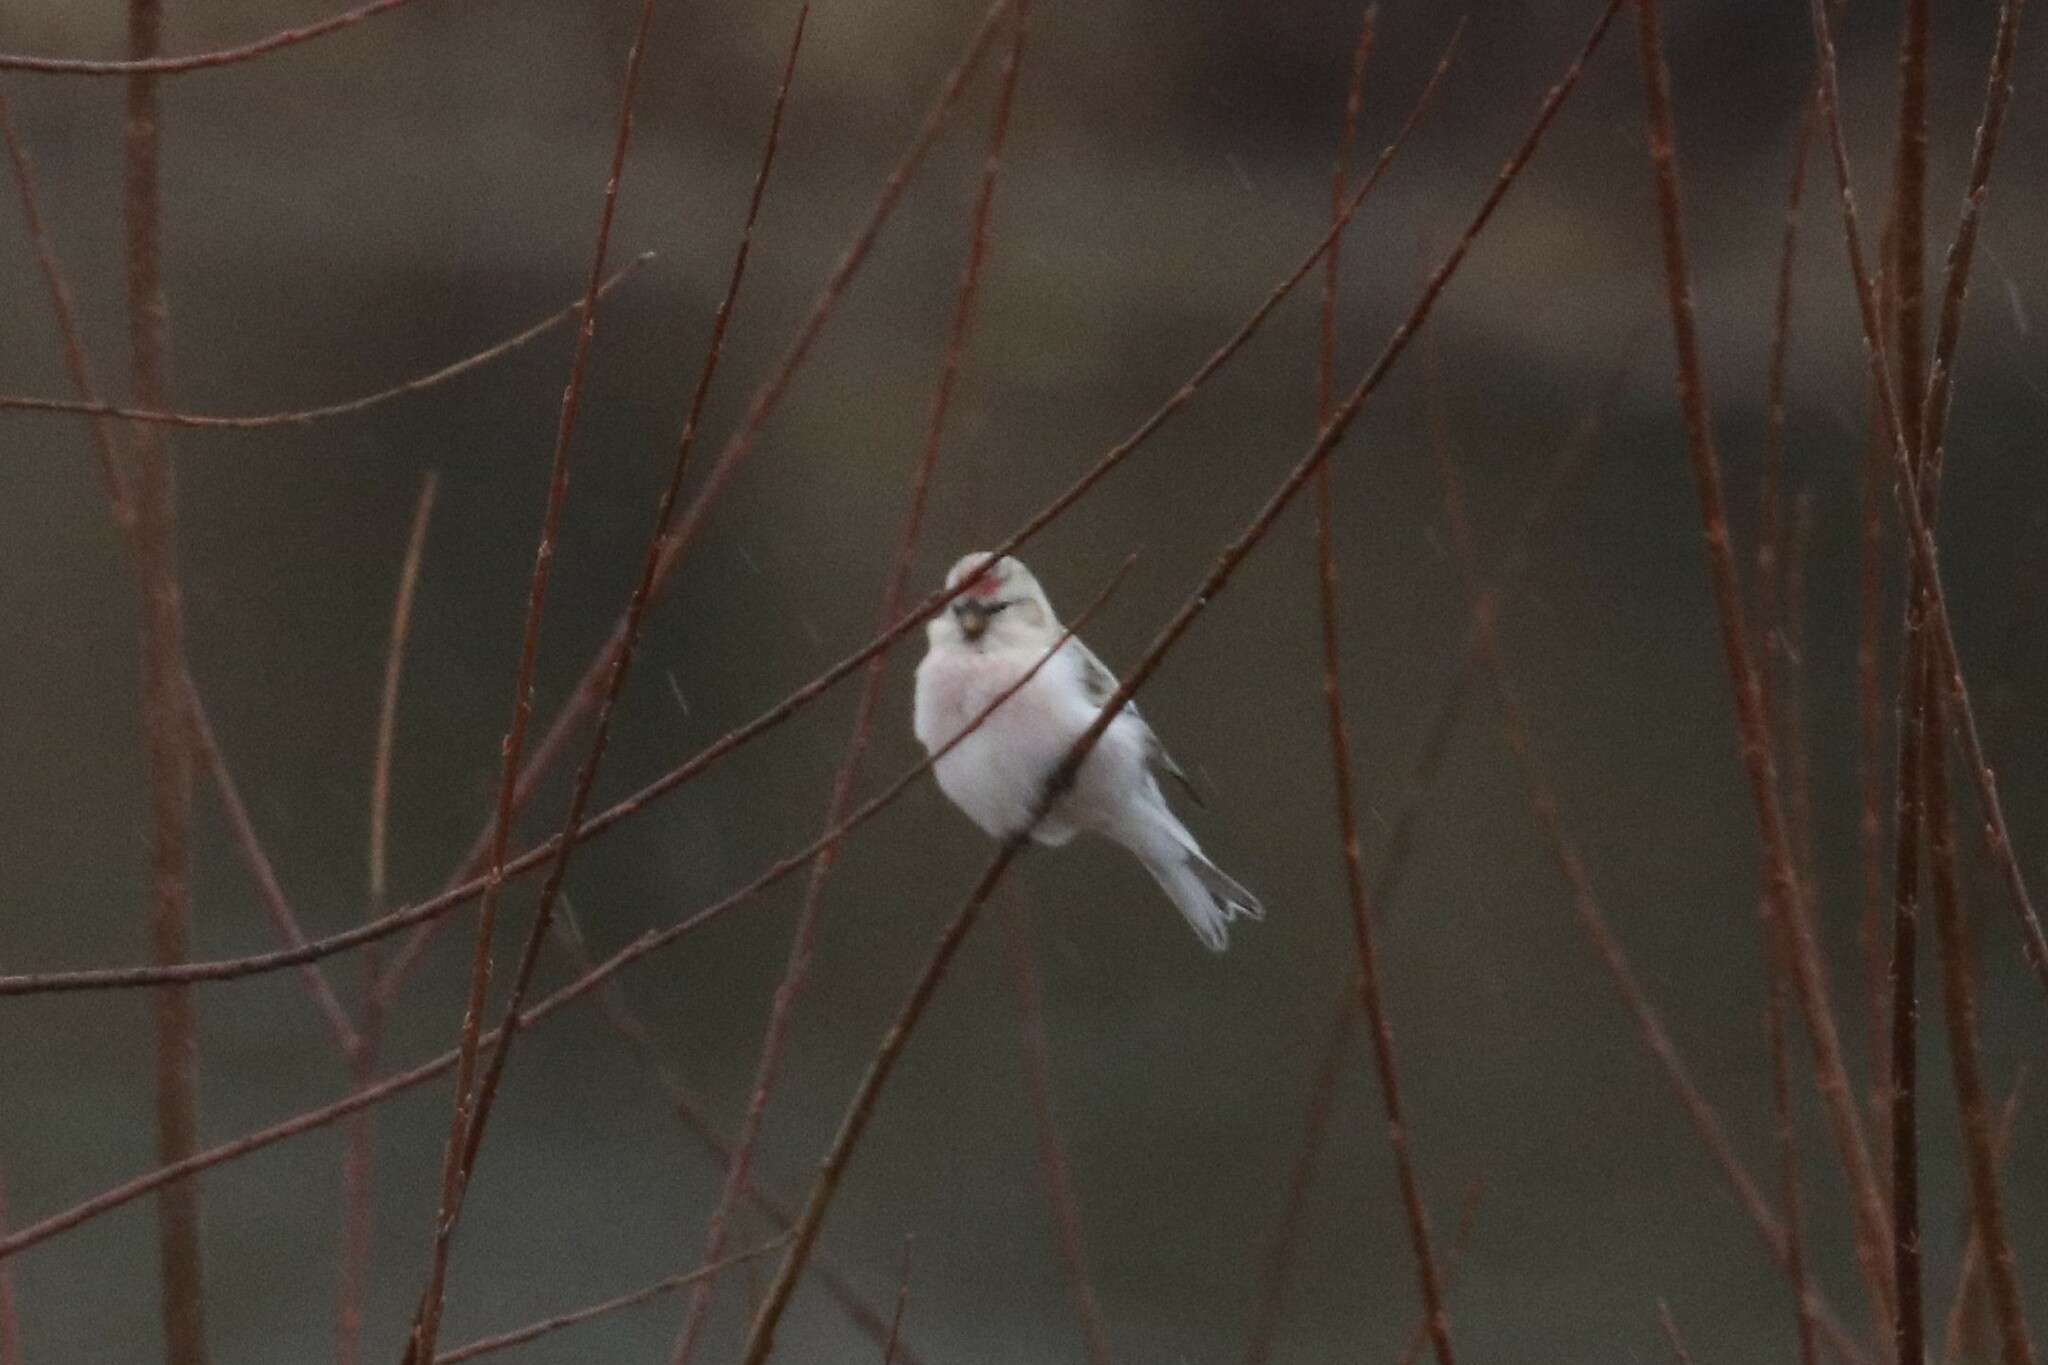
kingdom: Animalia
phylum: Chordata
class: Aves
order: Passeriformes
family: Fringillidae
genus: Acanthis
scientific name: Acanthis hornemanni
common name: Arctic redpoll
